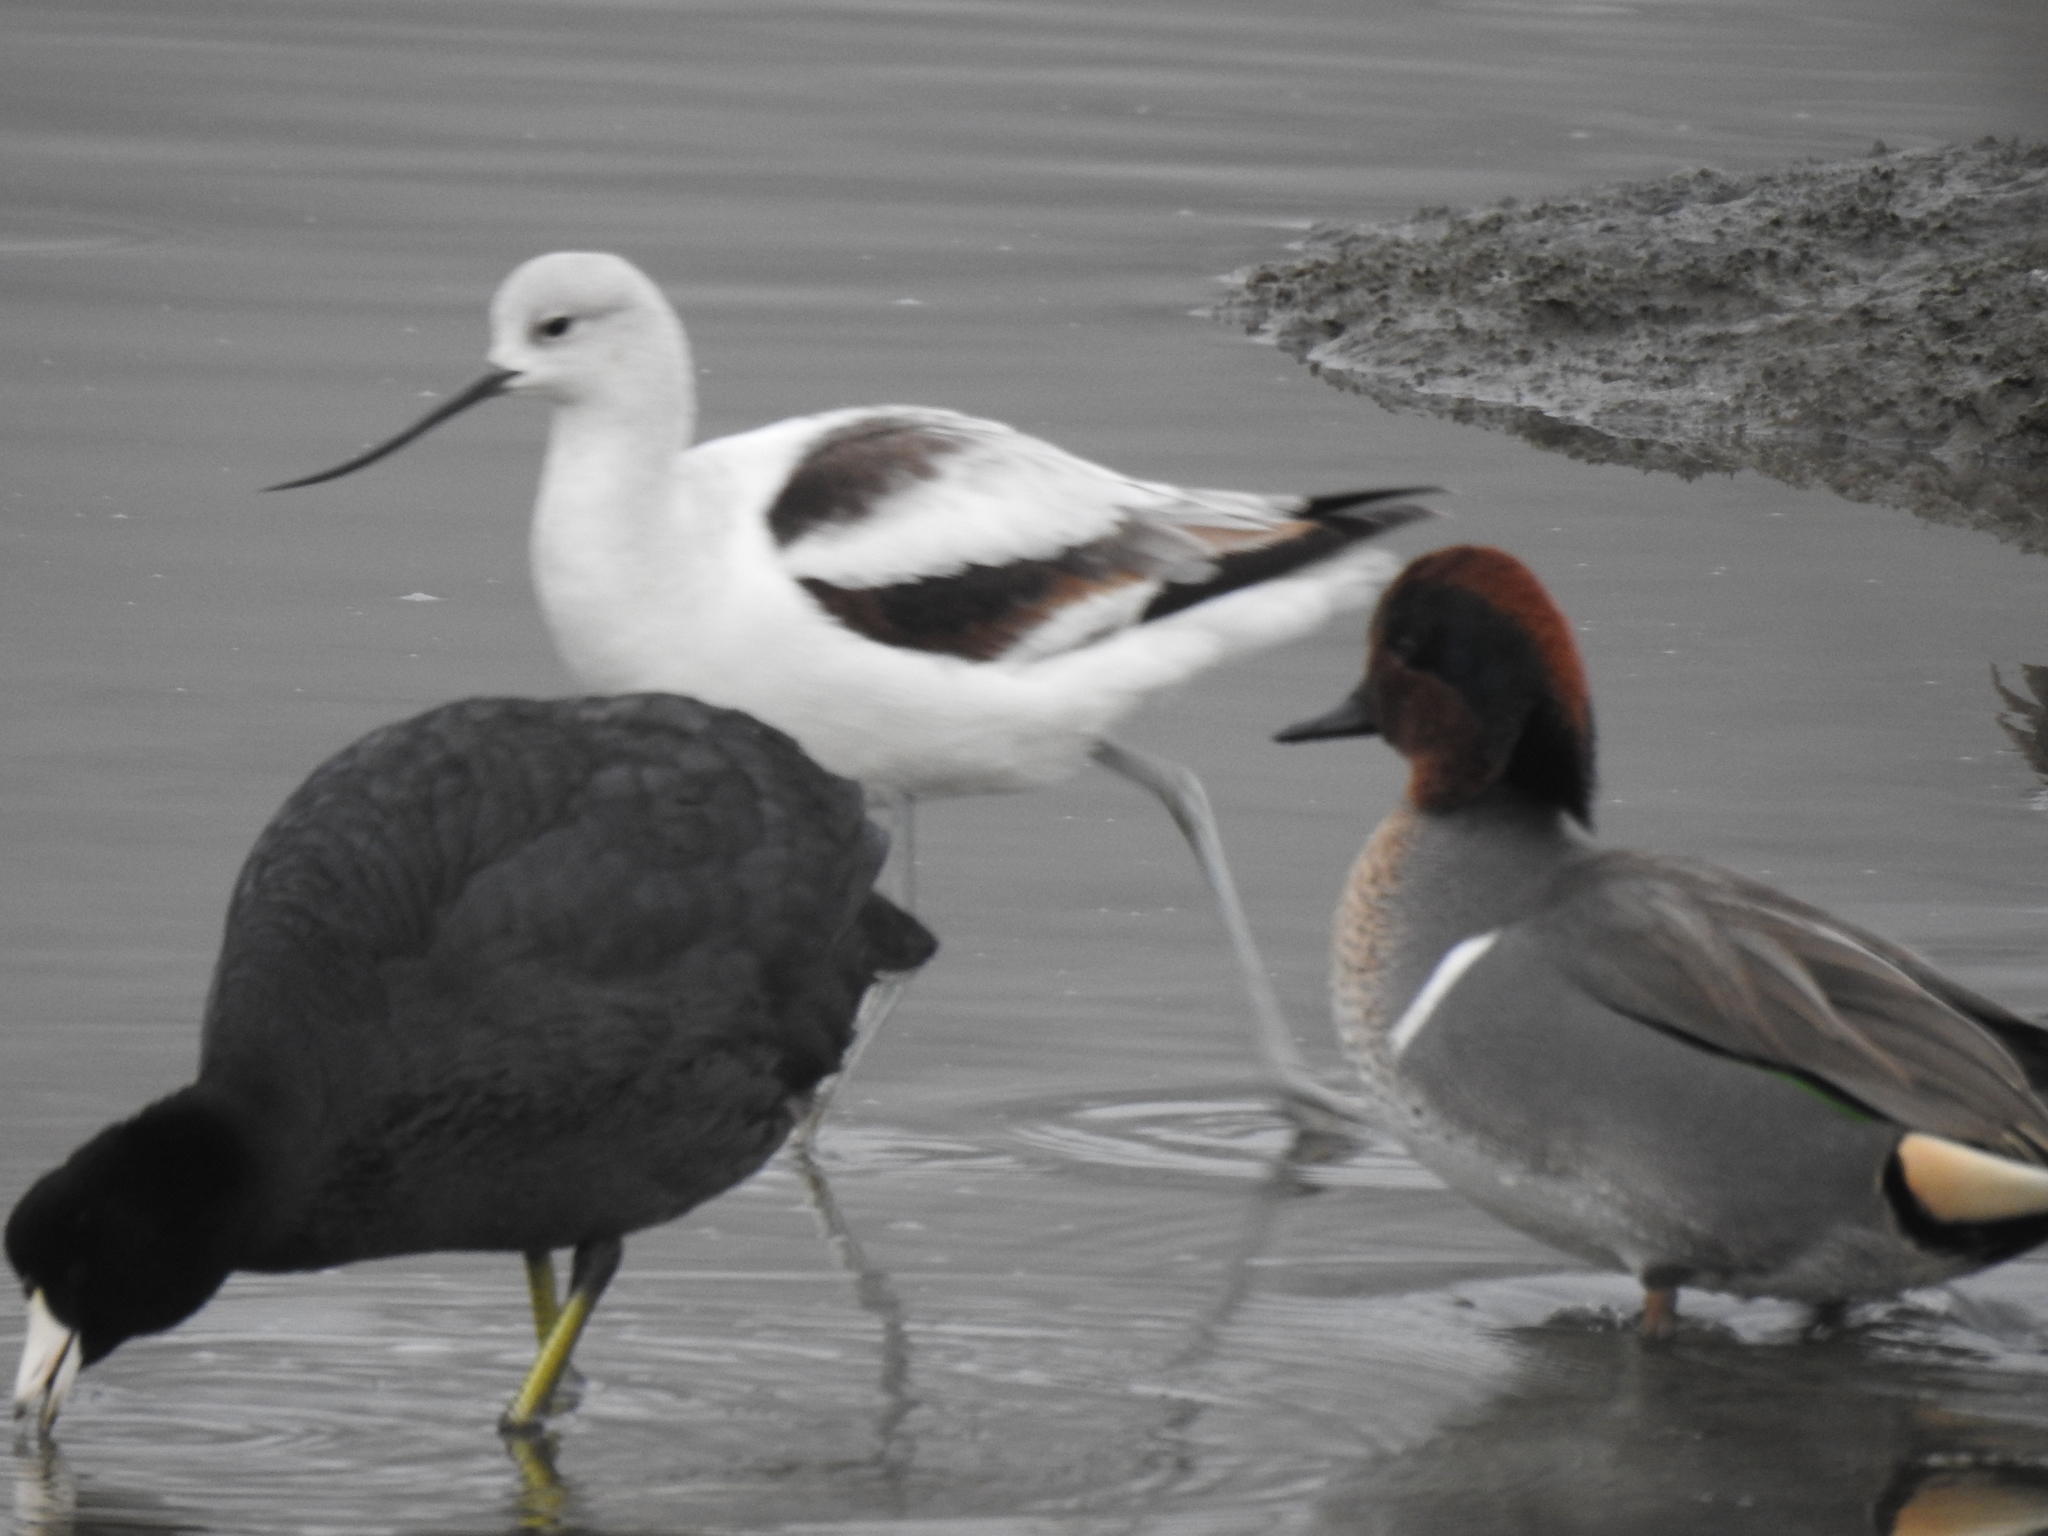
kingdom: Animalia
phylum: Chordata
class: Aves
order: Charadriiformes
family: Recurvirostridae
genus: Recurvirostra
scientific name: Recurvirostra americana
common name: American avocet
